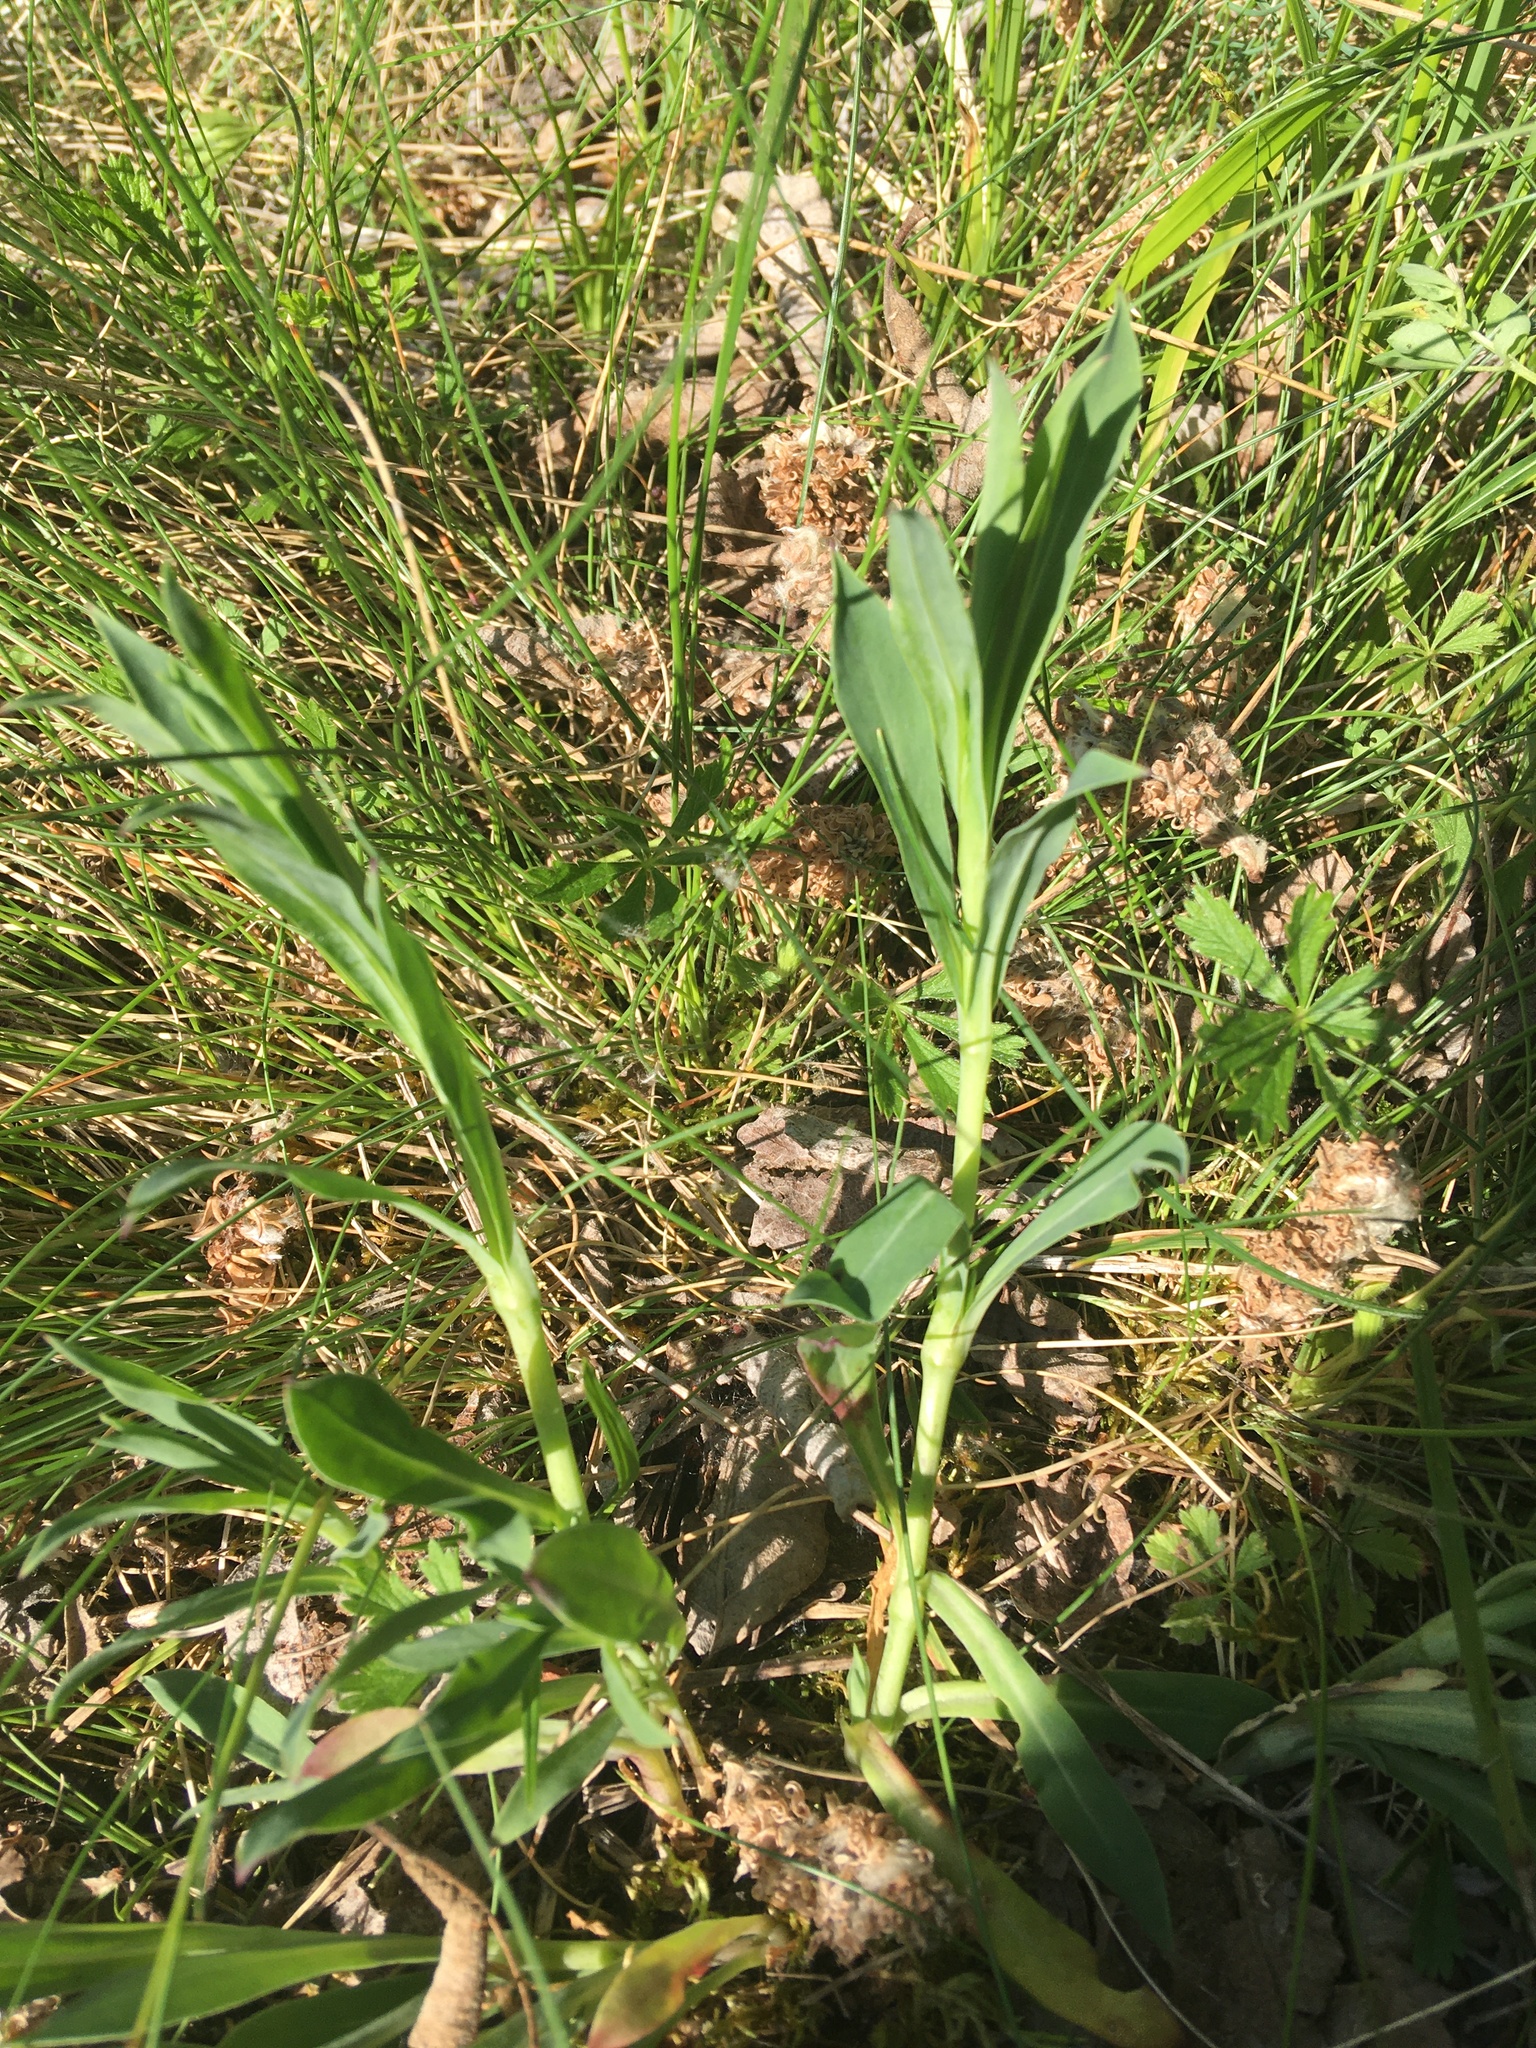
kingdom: Plantae
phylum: Tracheophyta
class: Magnoliopsida
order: Caryophyllales
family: Caryophyllaceae
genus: Silene
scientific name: Silene vulgaris
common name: Bladder campion
